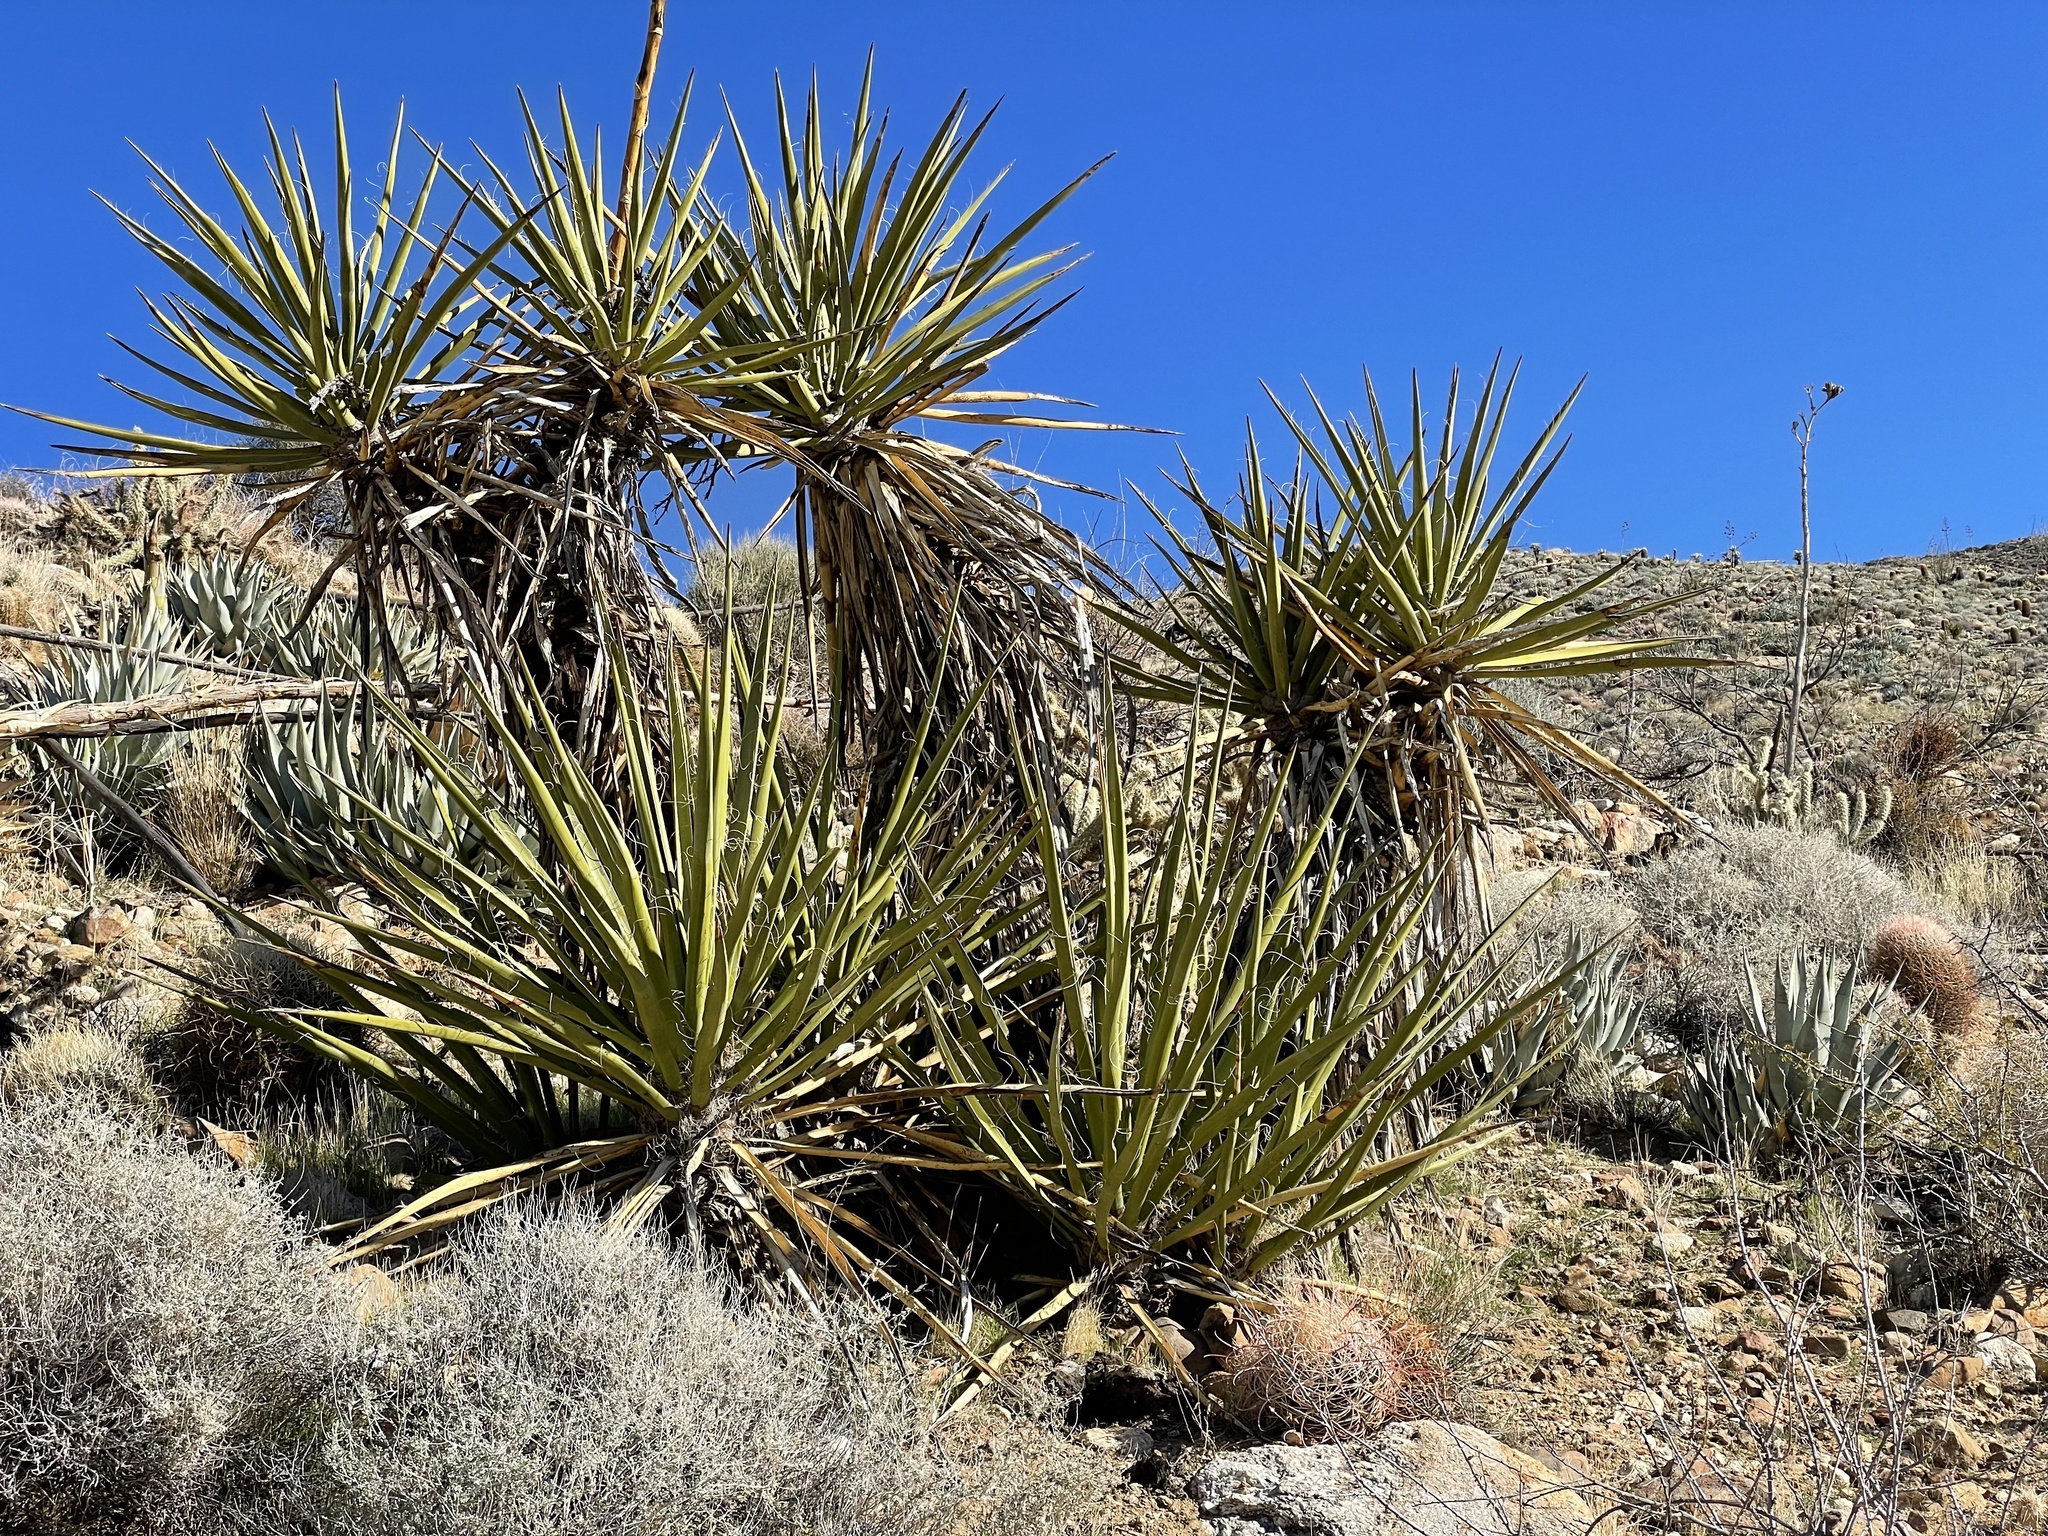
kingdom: Plantae
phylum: Tracheophyta
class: Liliopsida
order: Asparagales
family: Asparagaceae
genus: Yucca
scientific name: Yucca schidigera
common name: Mojave yucca
